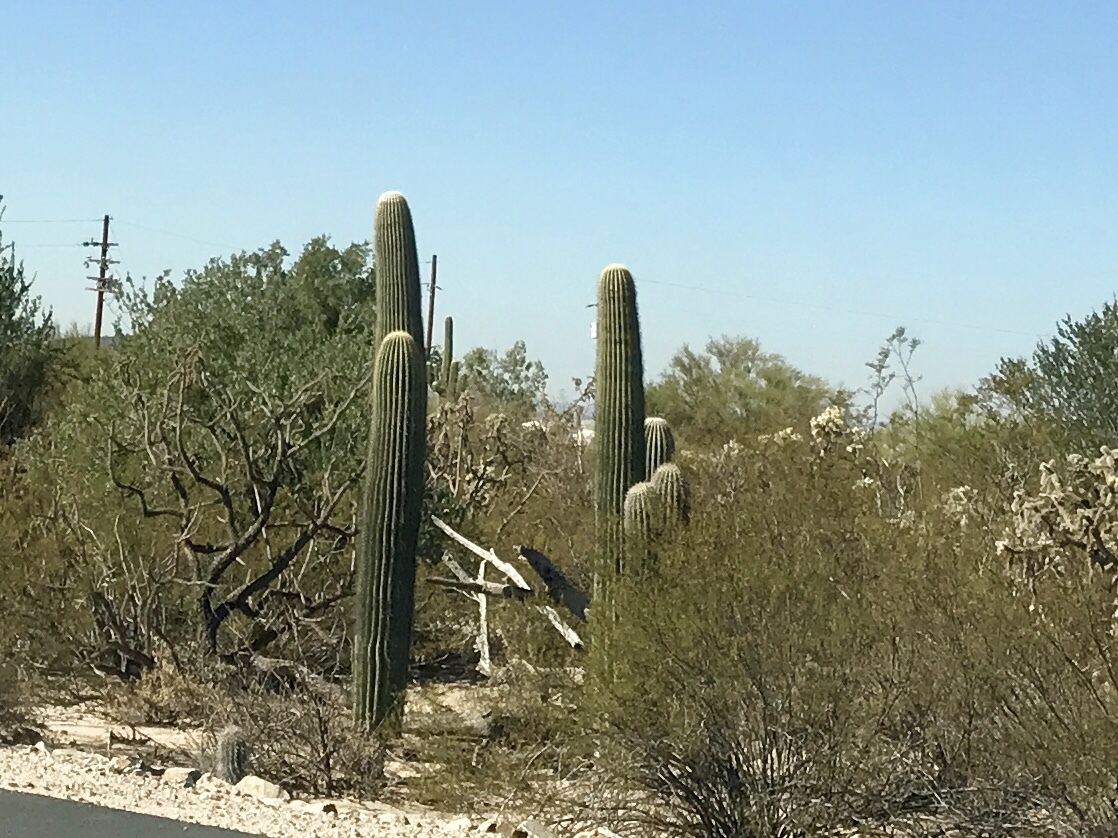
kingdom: Plantae
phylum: Tracheophyta
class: Magnoliopsida
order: Caryophyllales
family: Cactaceae
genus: Carnegiea
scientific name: Carnegiea gigantea
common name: Saguaro
